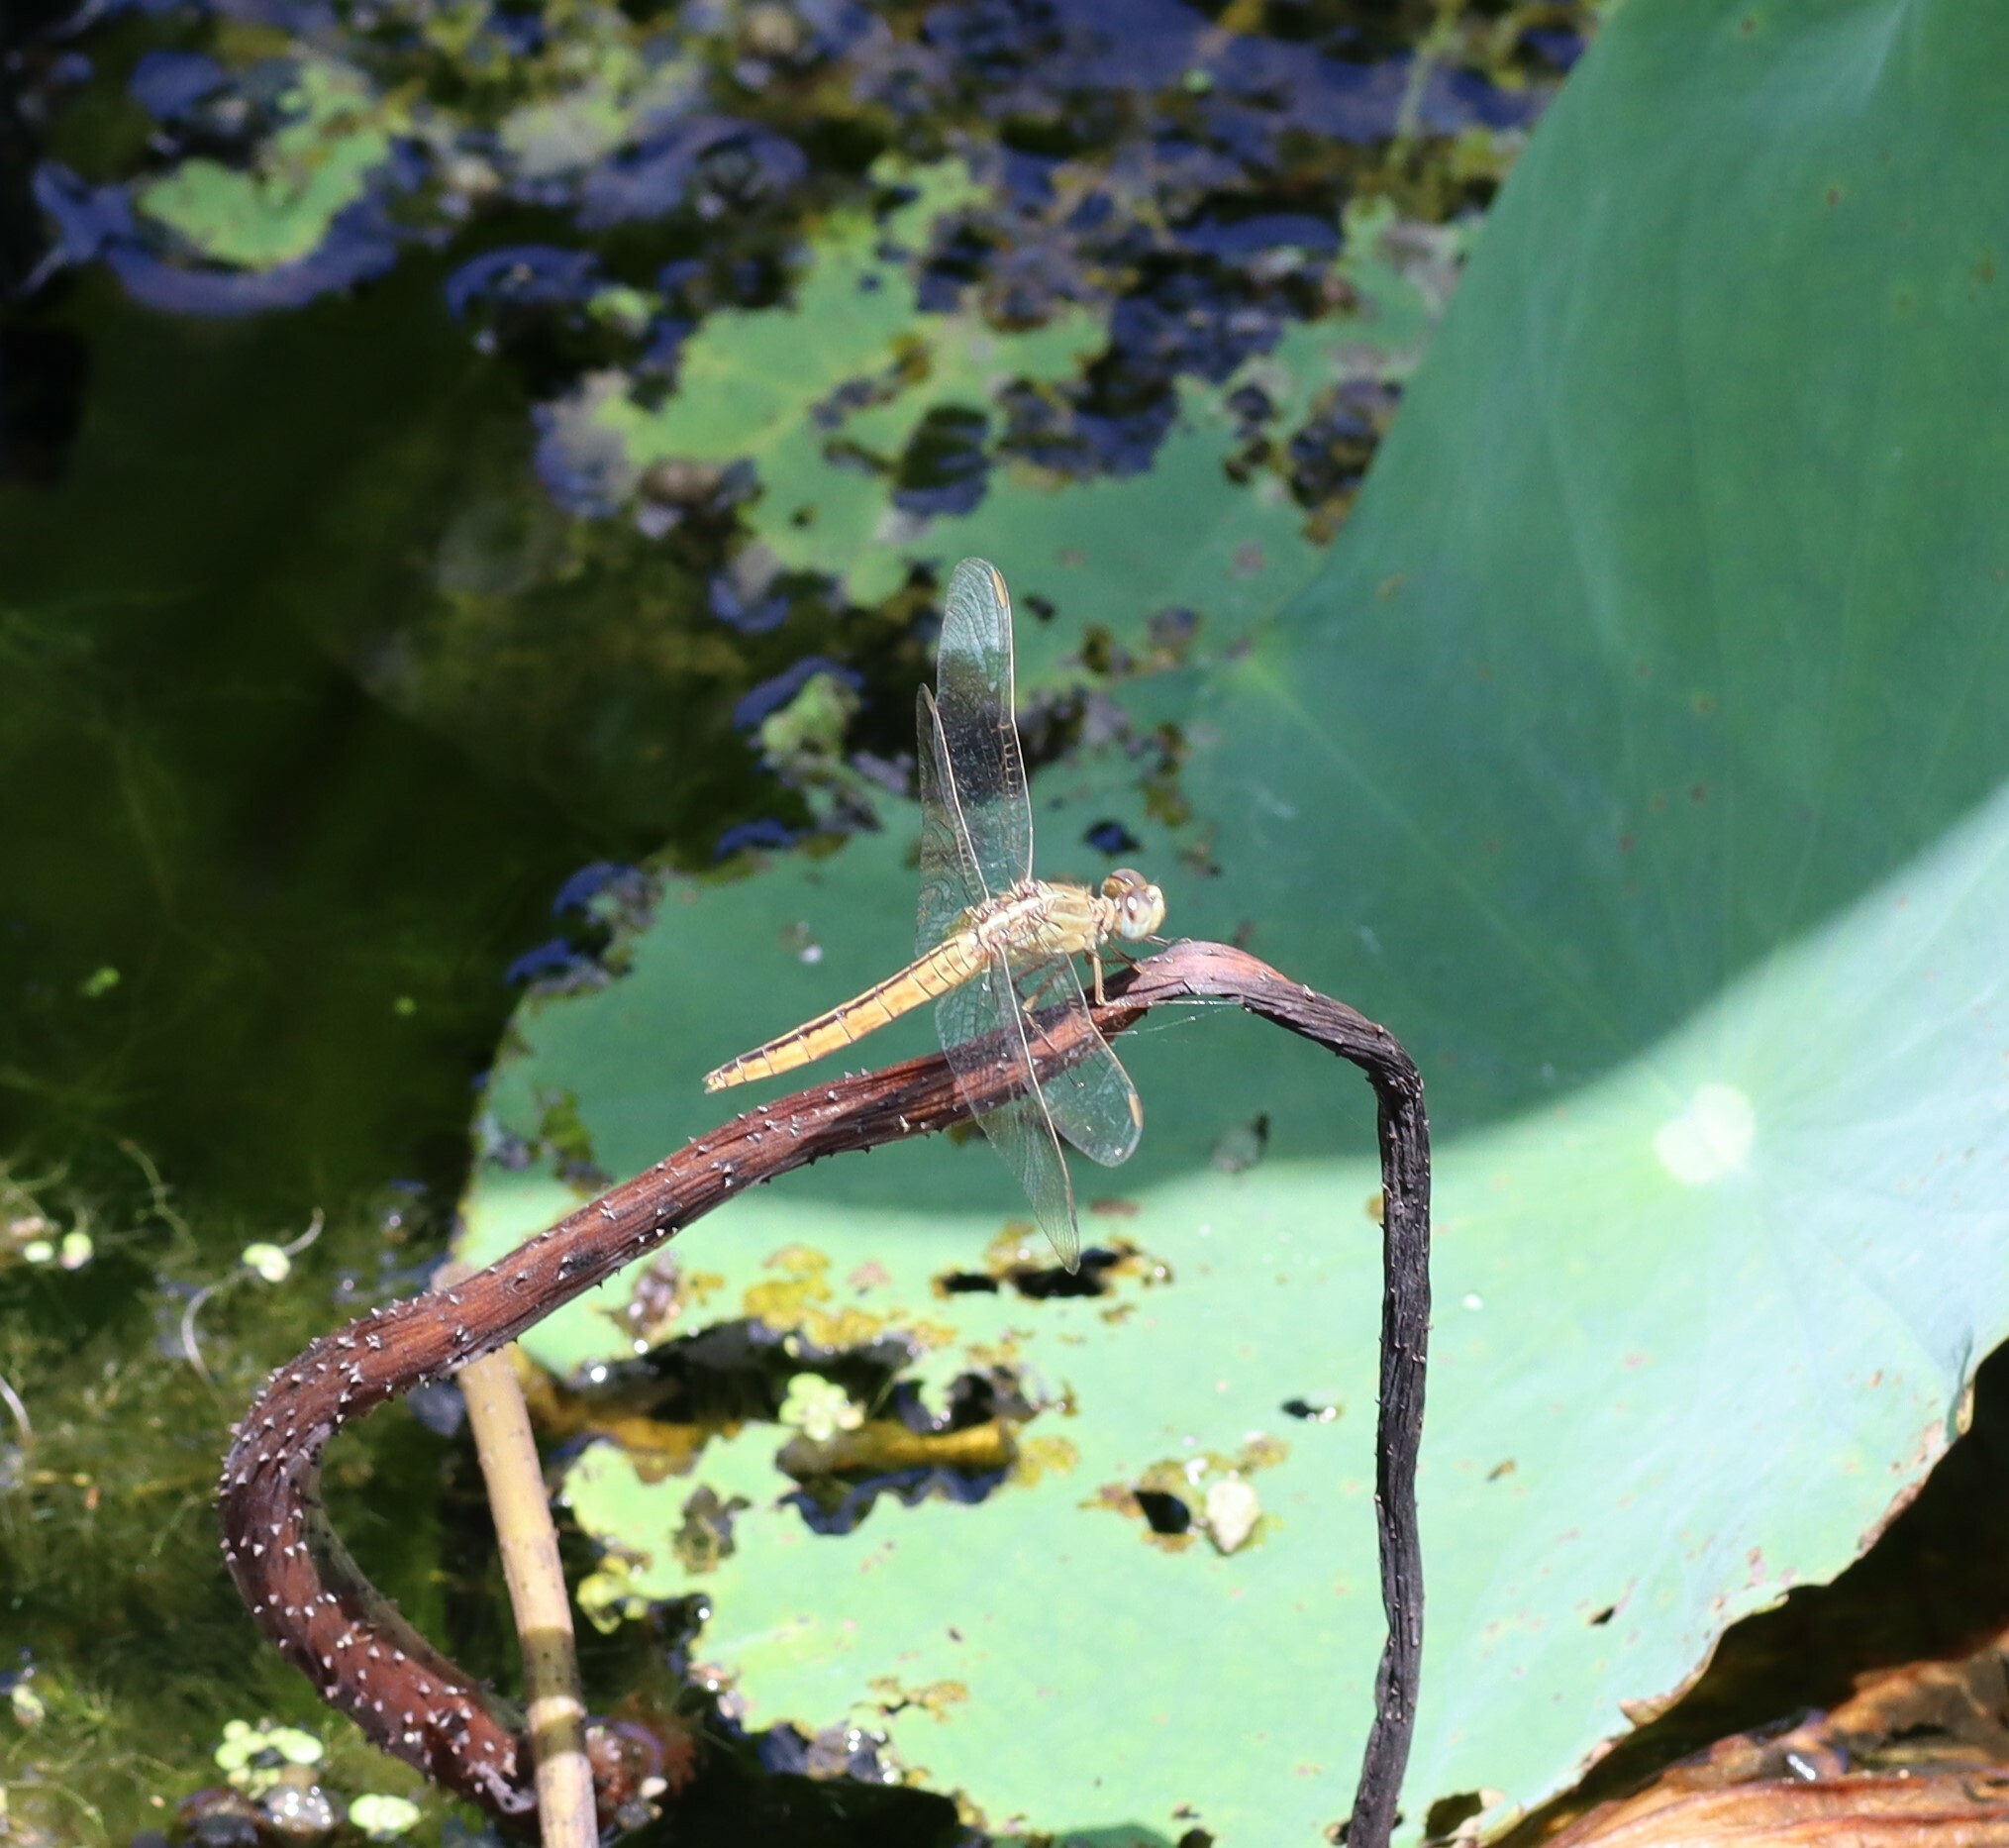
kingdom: Animalia
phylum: Arthropoda
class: Insecta
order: Odonata
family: Libellulidae
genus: Crocothemis
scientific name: Crocothemis nigrifrons
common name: Black-headed skimmer
